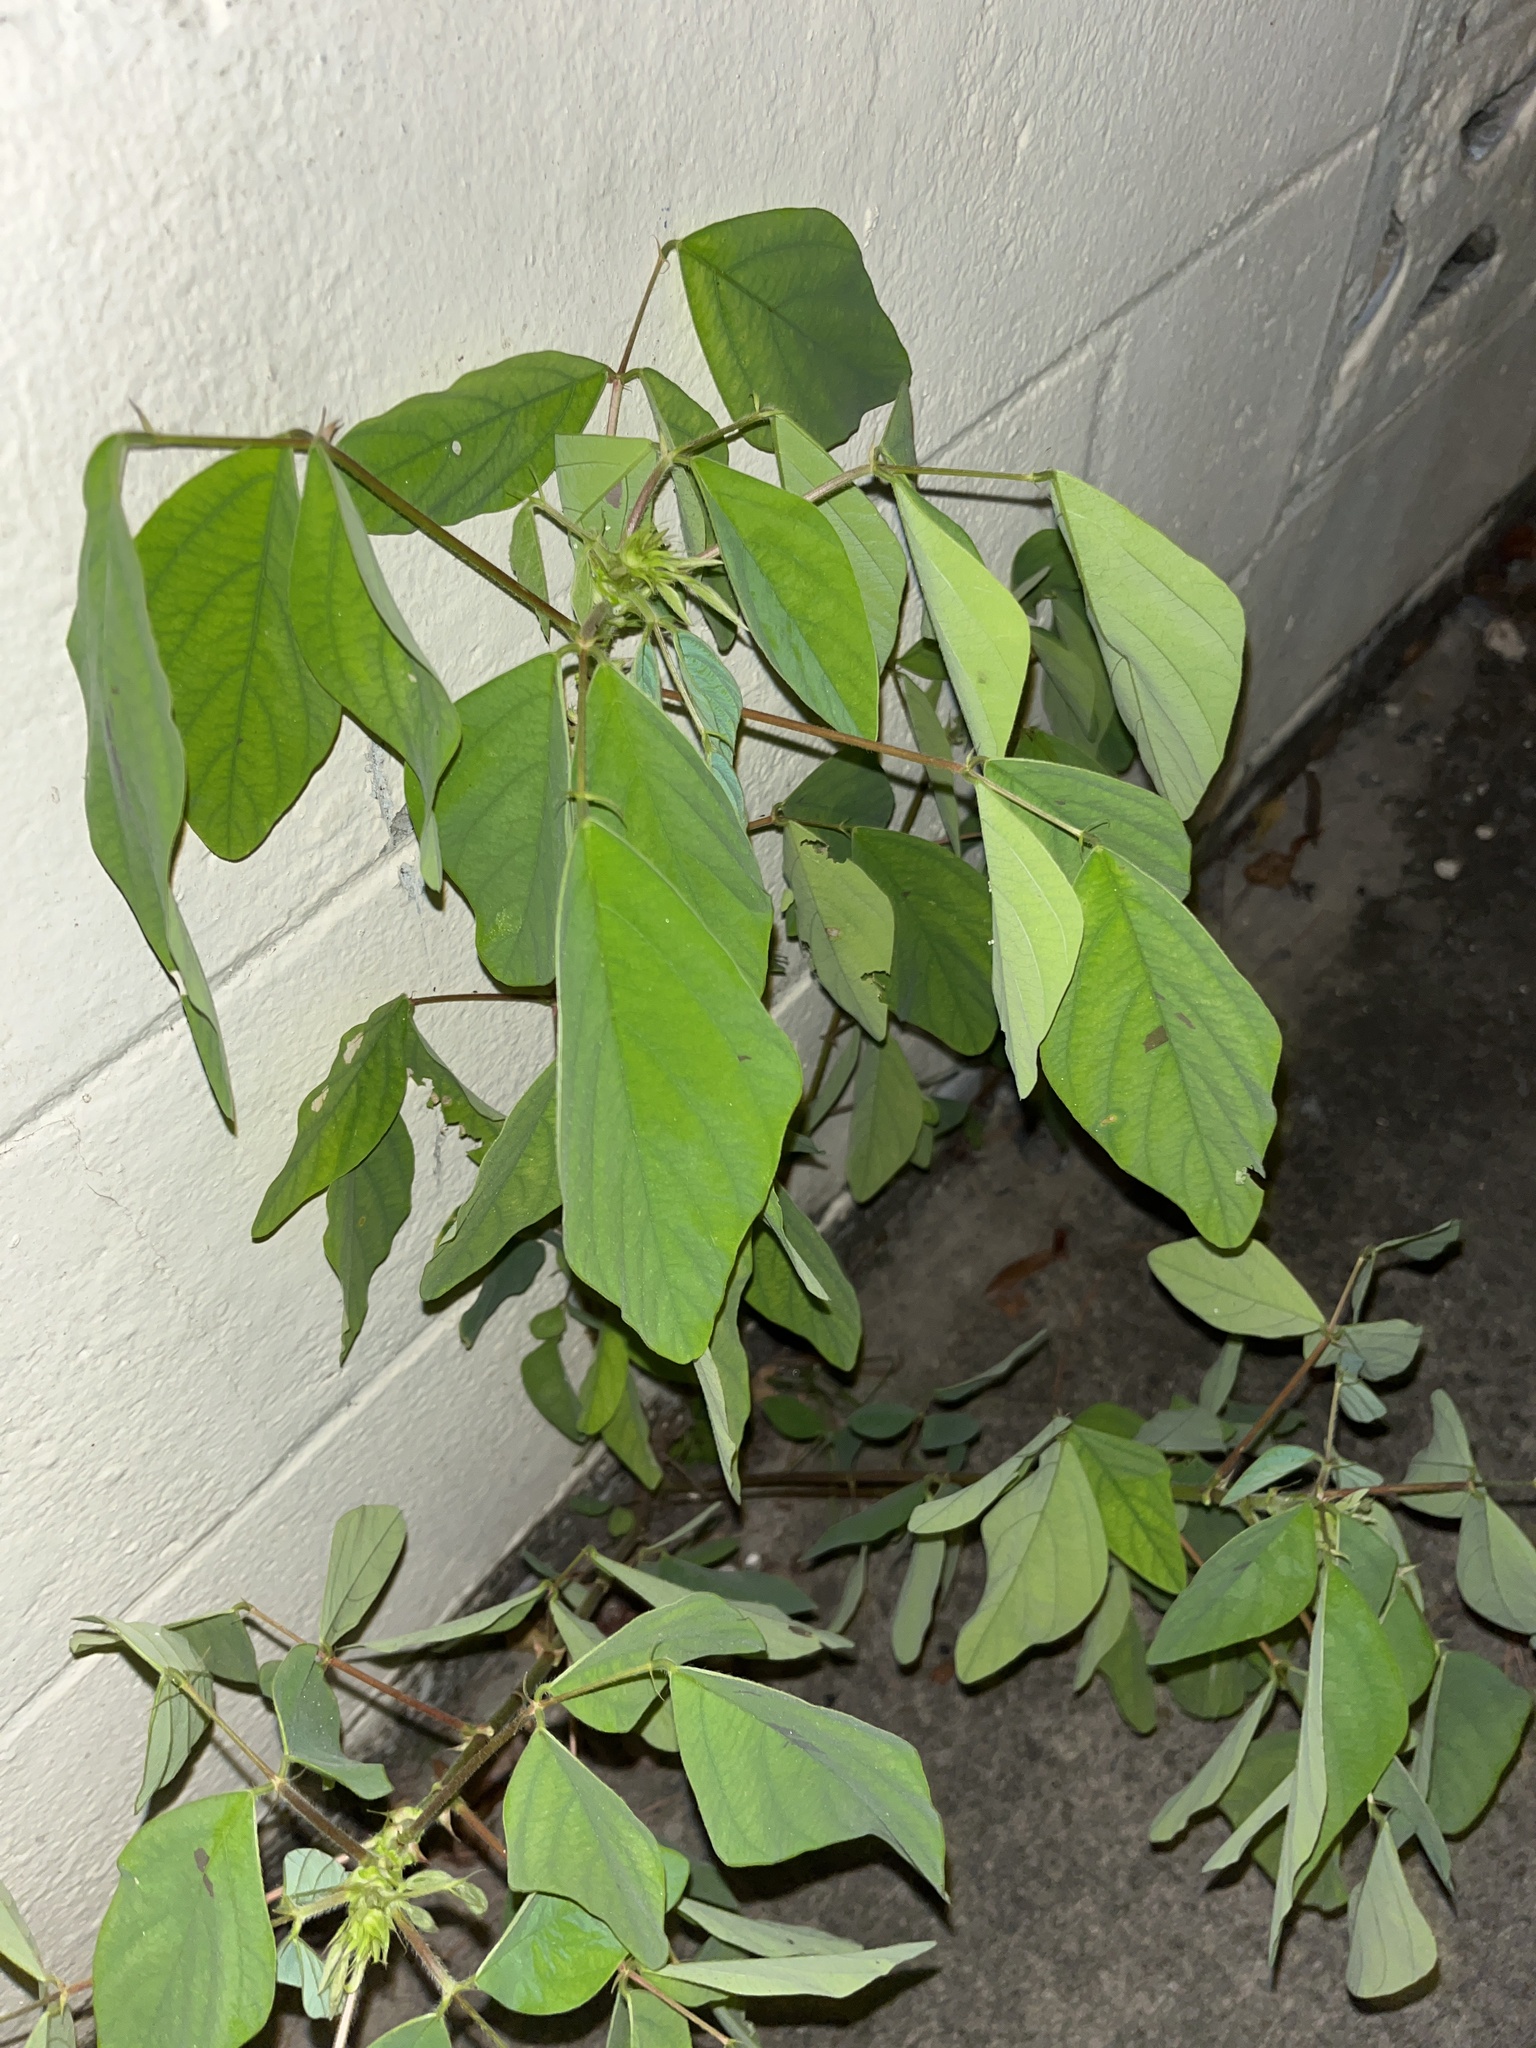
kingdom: Plantae
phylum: Tracheophyta
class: Magnoliopsida
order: Fabales
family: Fabaceae
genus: Desmodium
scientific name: Desmodium tortuosum
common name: Dixie ticktrefoil
